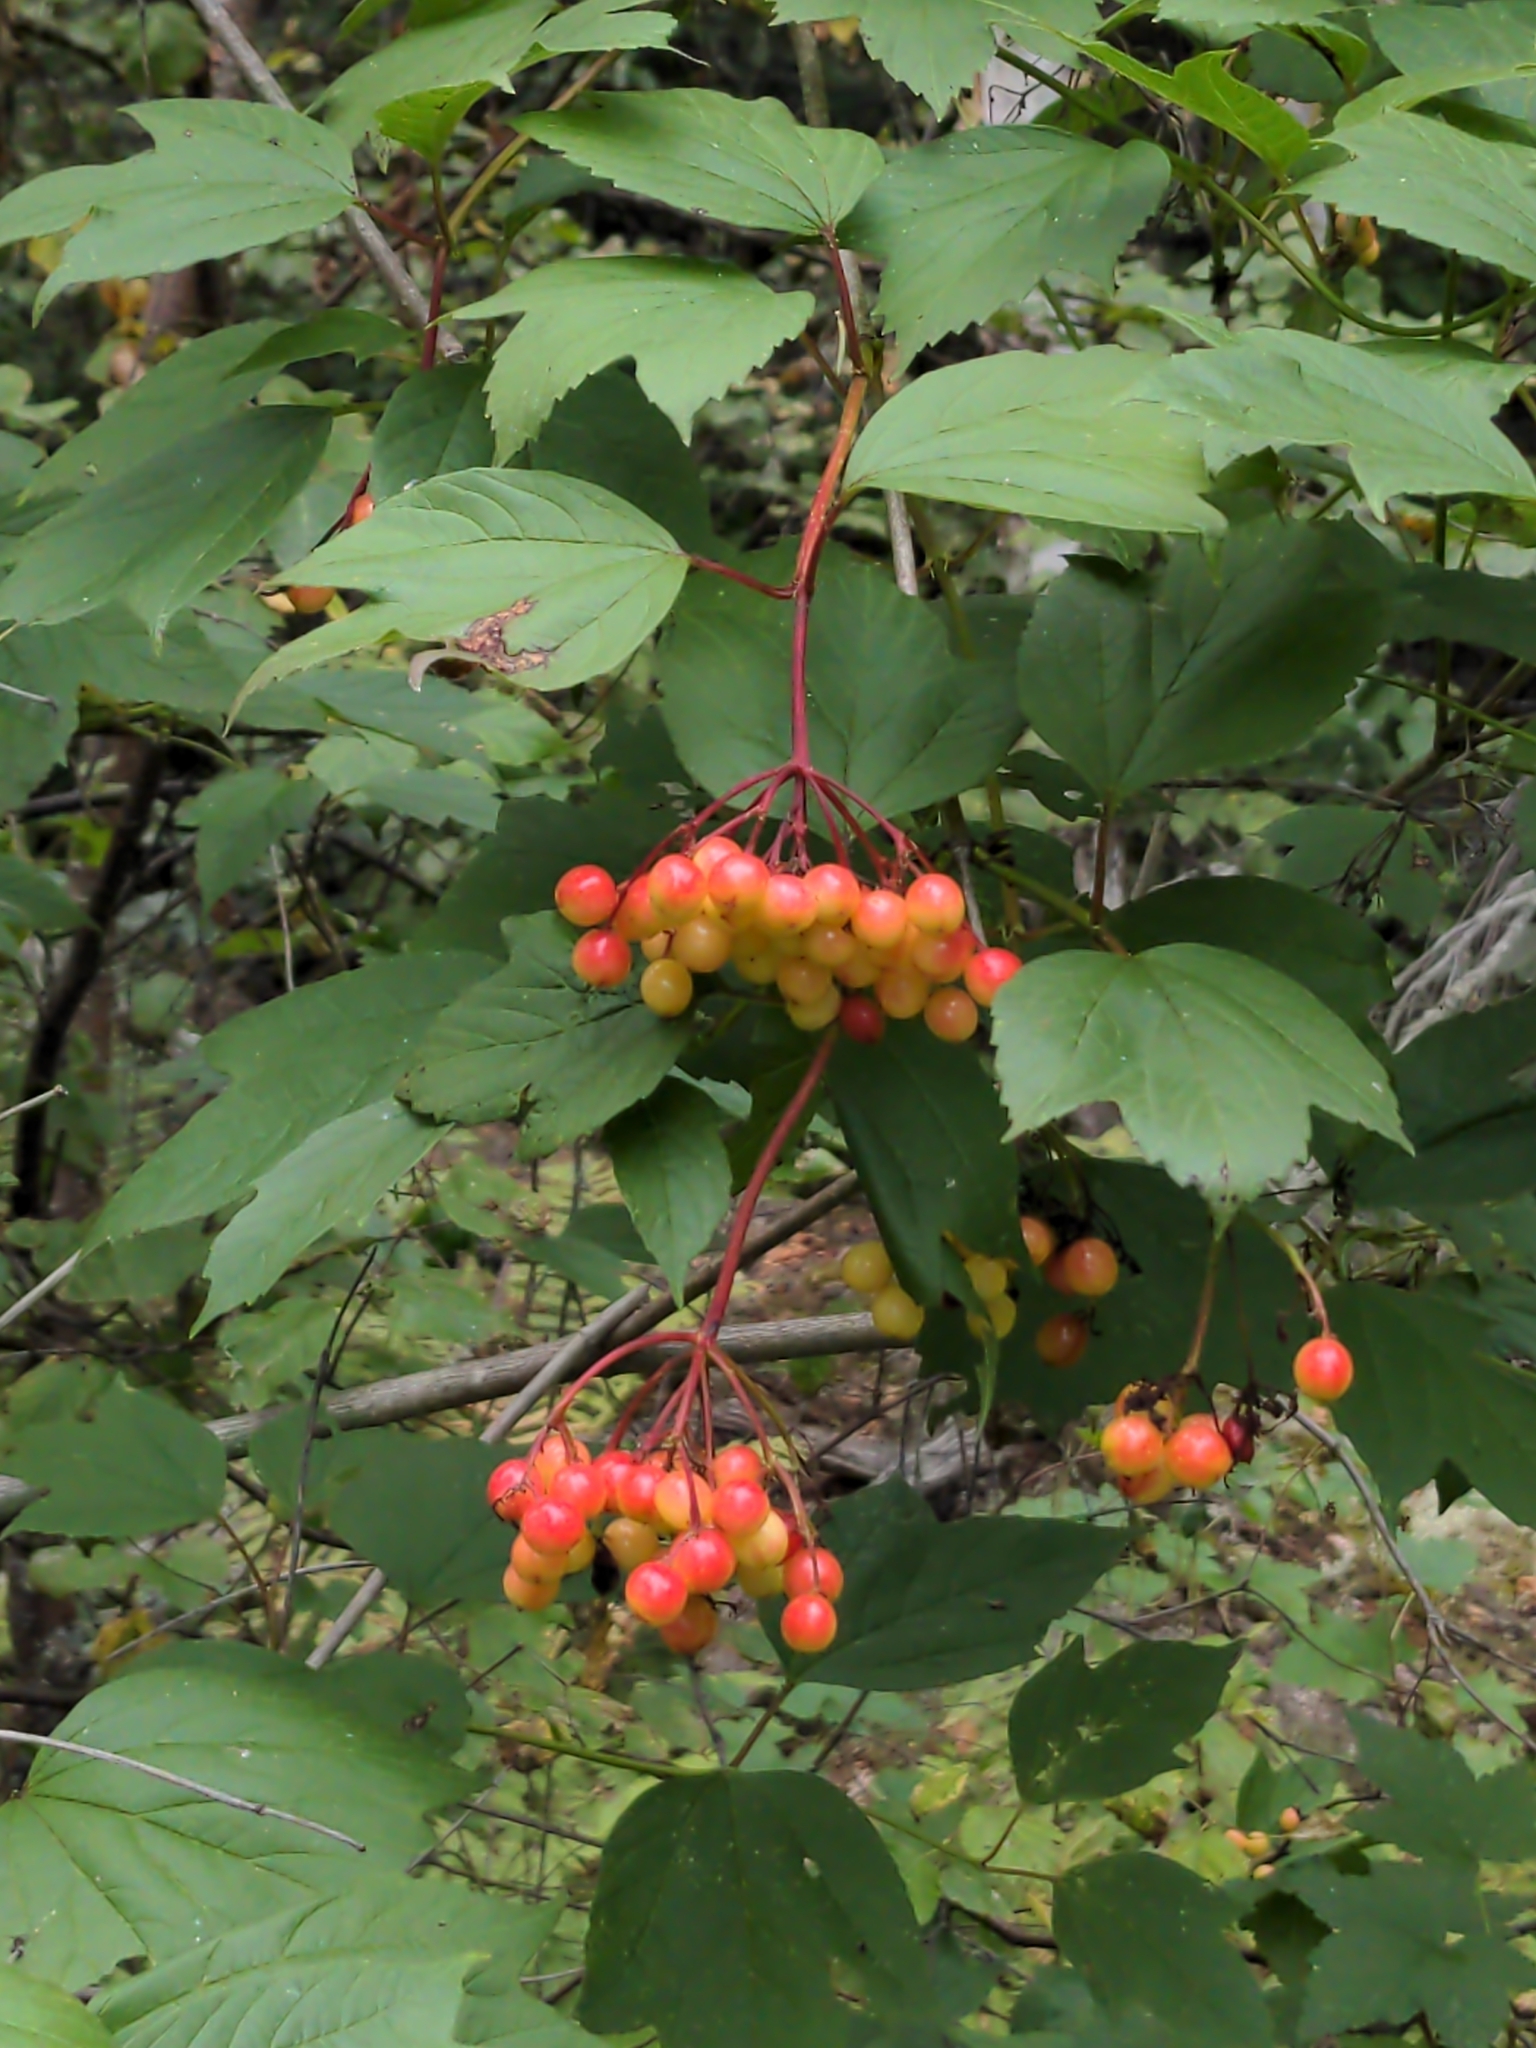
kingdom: Plantae
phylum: Tracheophyta
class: Magnoliopsida
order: Dipsacales
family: Viburnaceae
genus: Viburnum
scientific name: Viburnum opulus
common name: Guelder-rose
